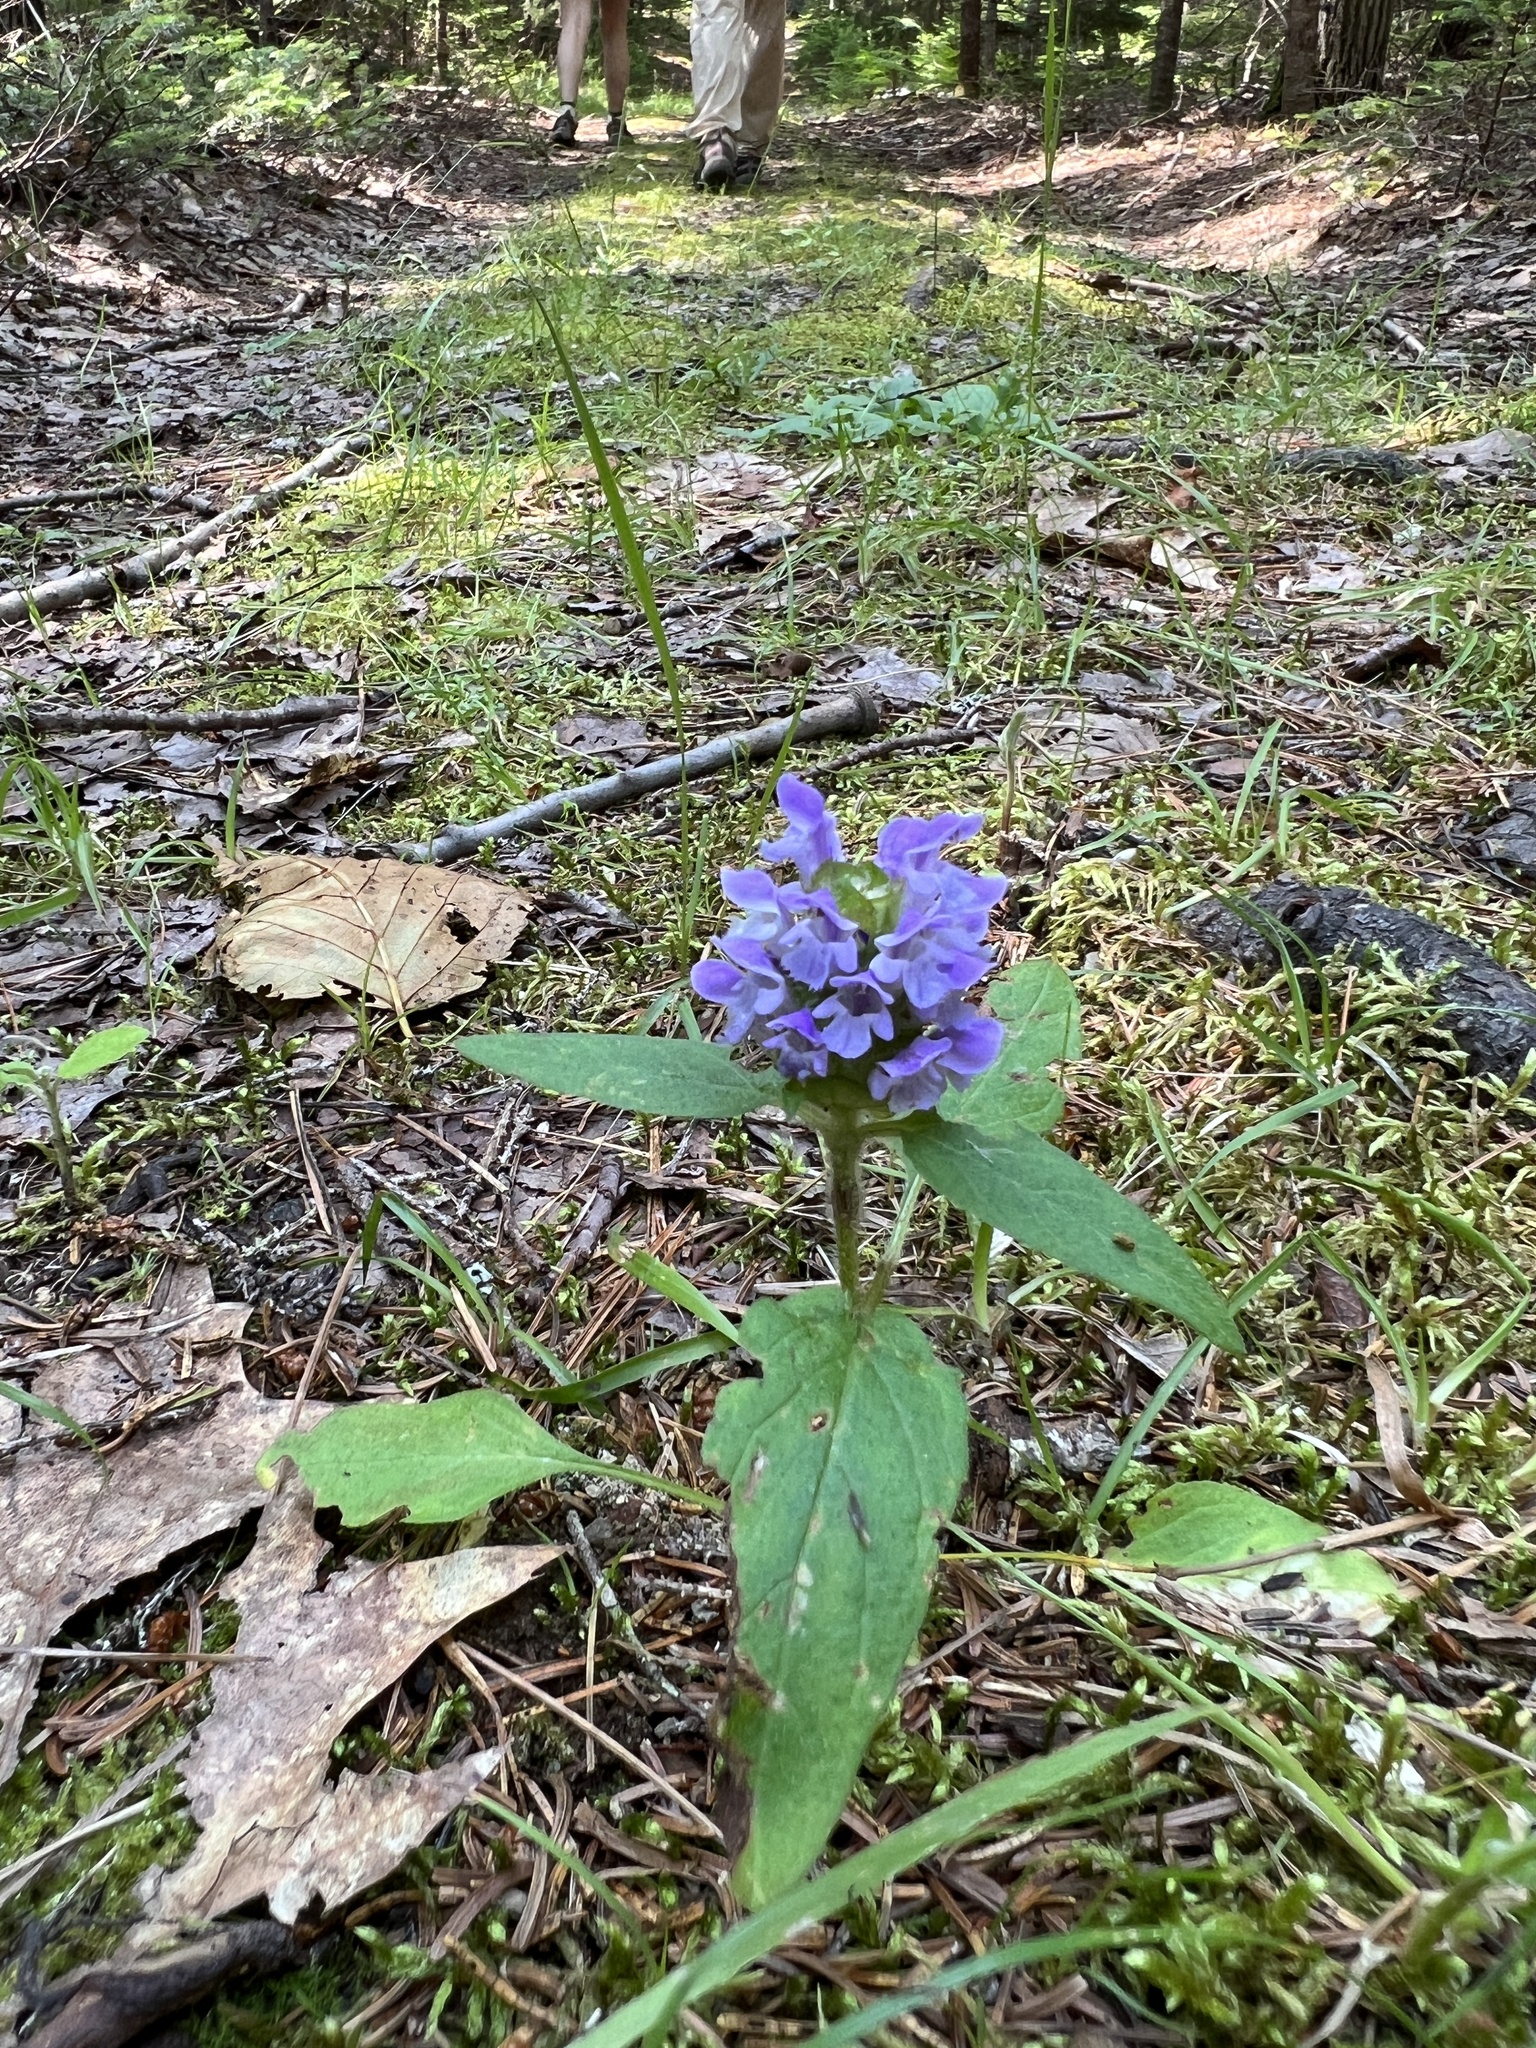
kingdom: Plantae
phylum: Tracheophyta
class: Magnoliopsida
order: Lamiales
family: Lamiaceae
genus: Prunella
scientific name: Prunella vulgaris
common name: Heal-all
